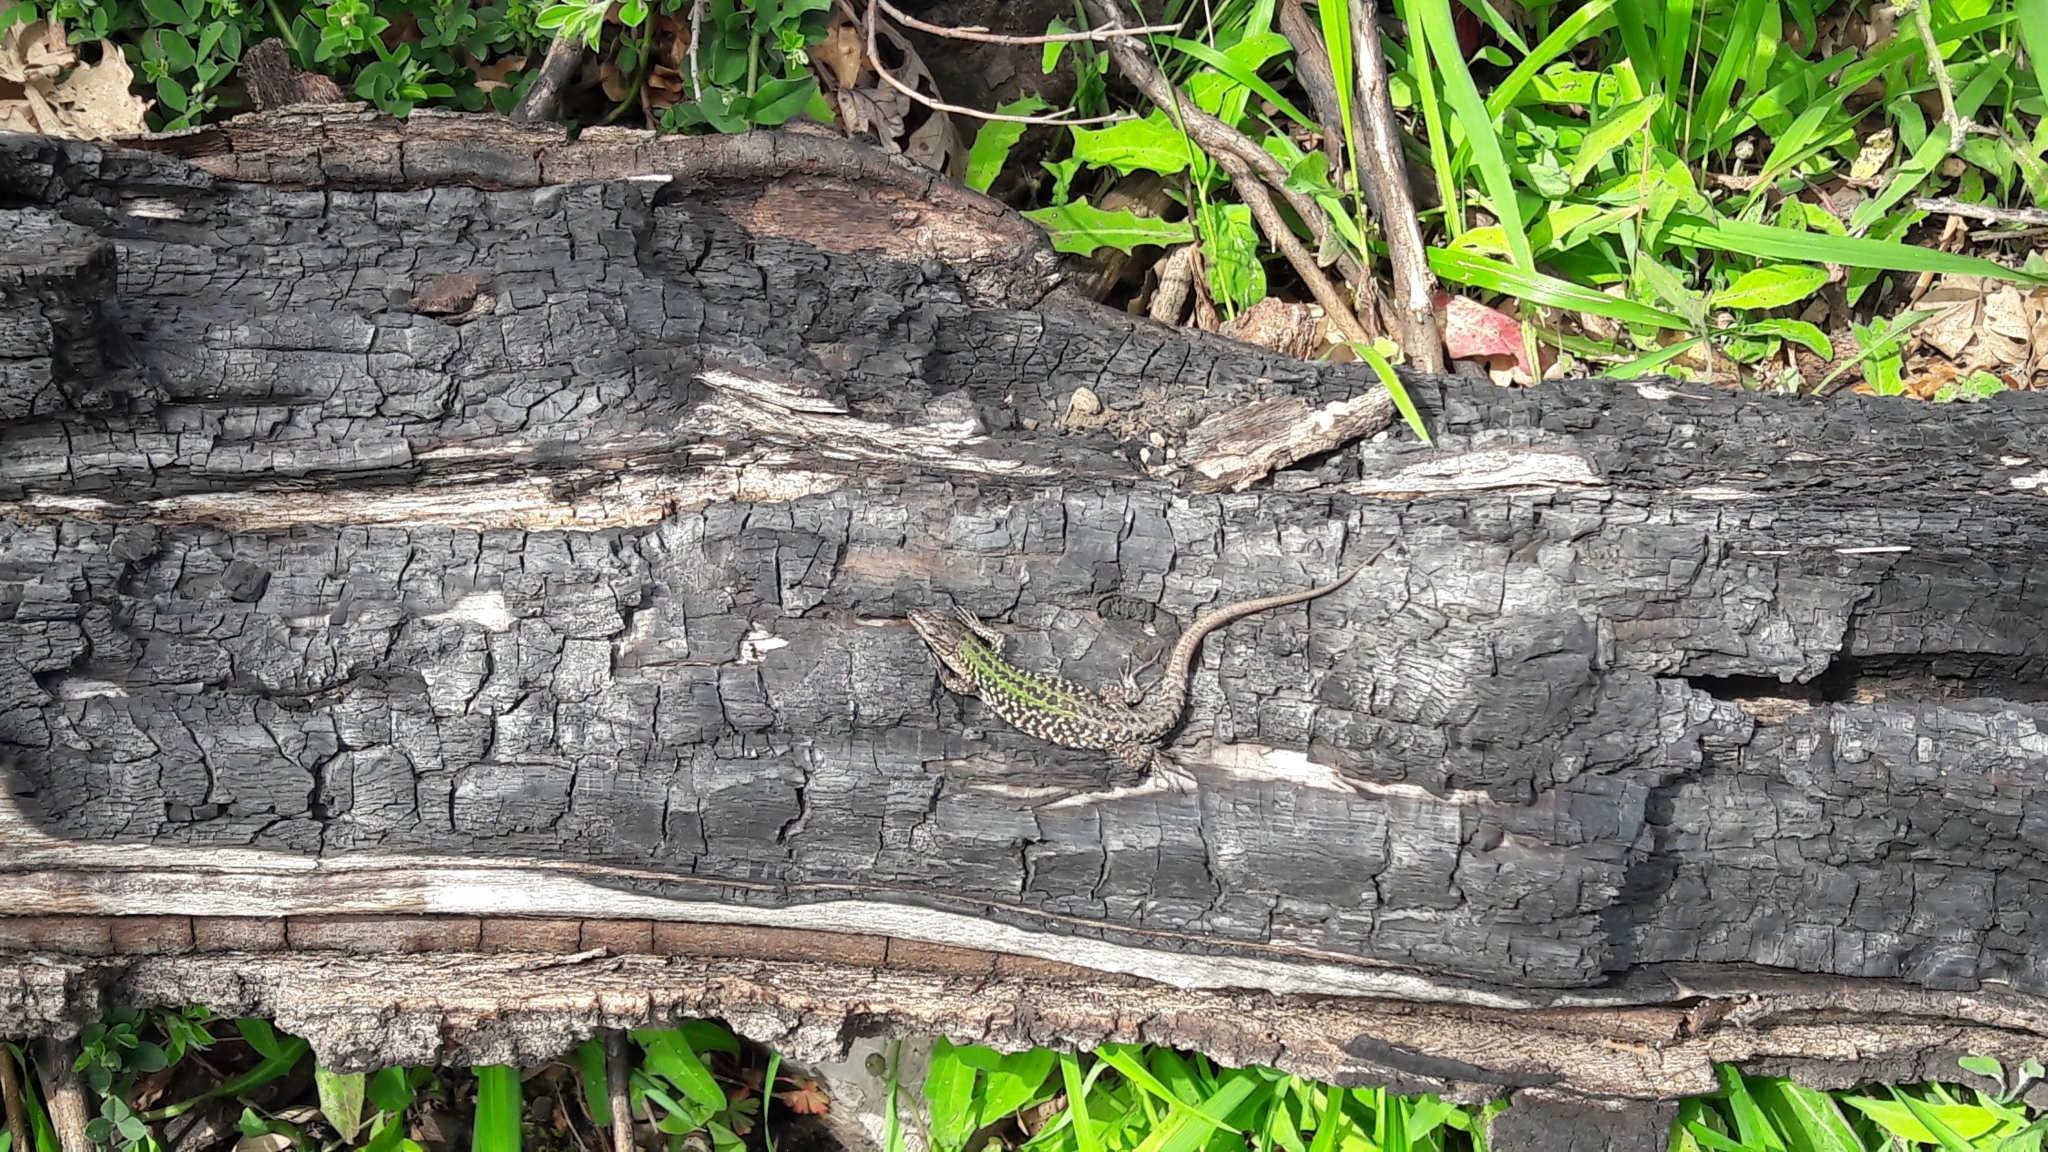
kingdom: Animalia
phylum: Chordata
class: Squamata
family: Lacertidae
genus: Podarcis
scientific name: Podarcis siculus
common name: Italian wall lizard
